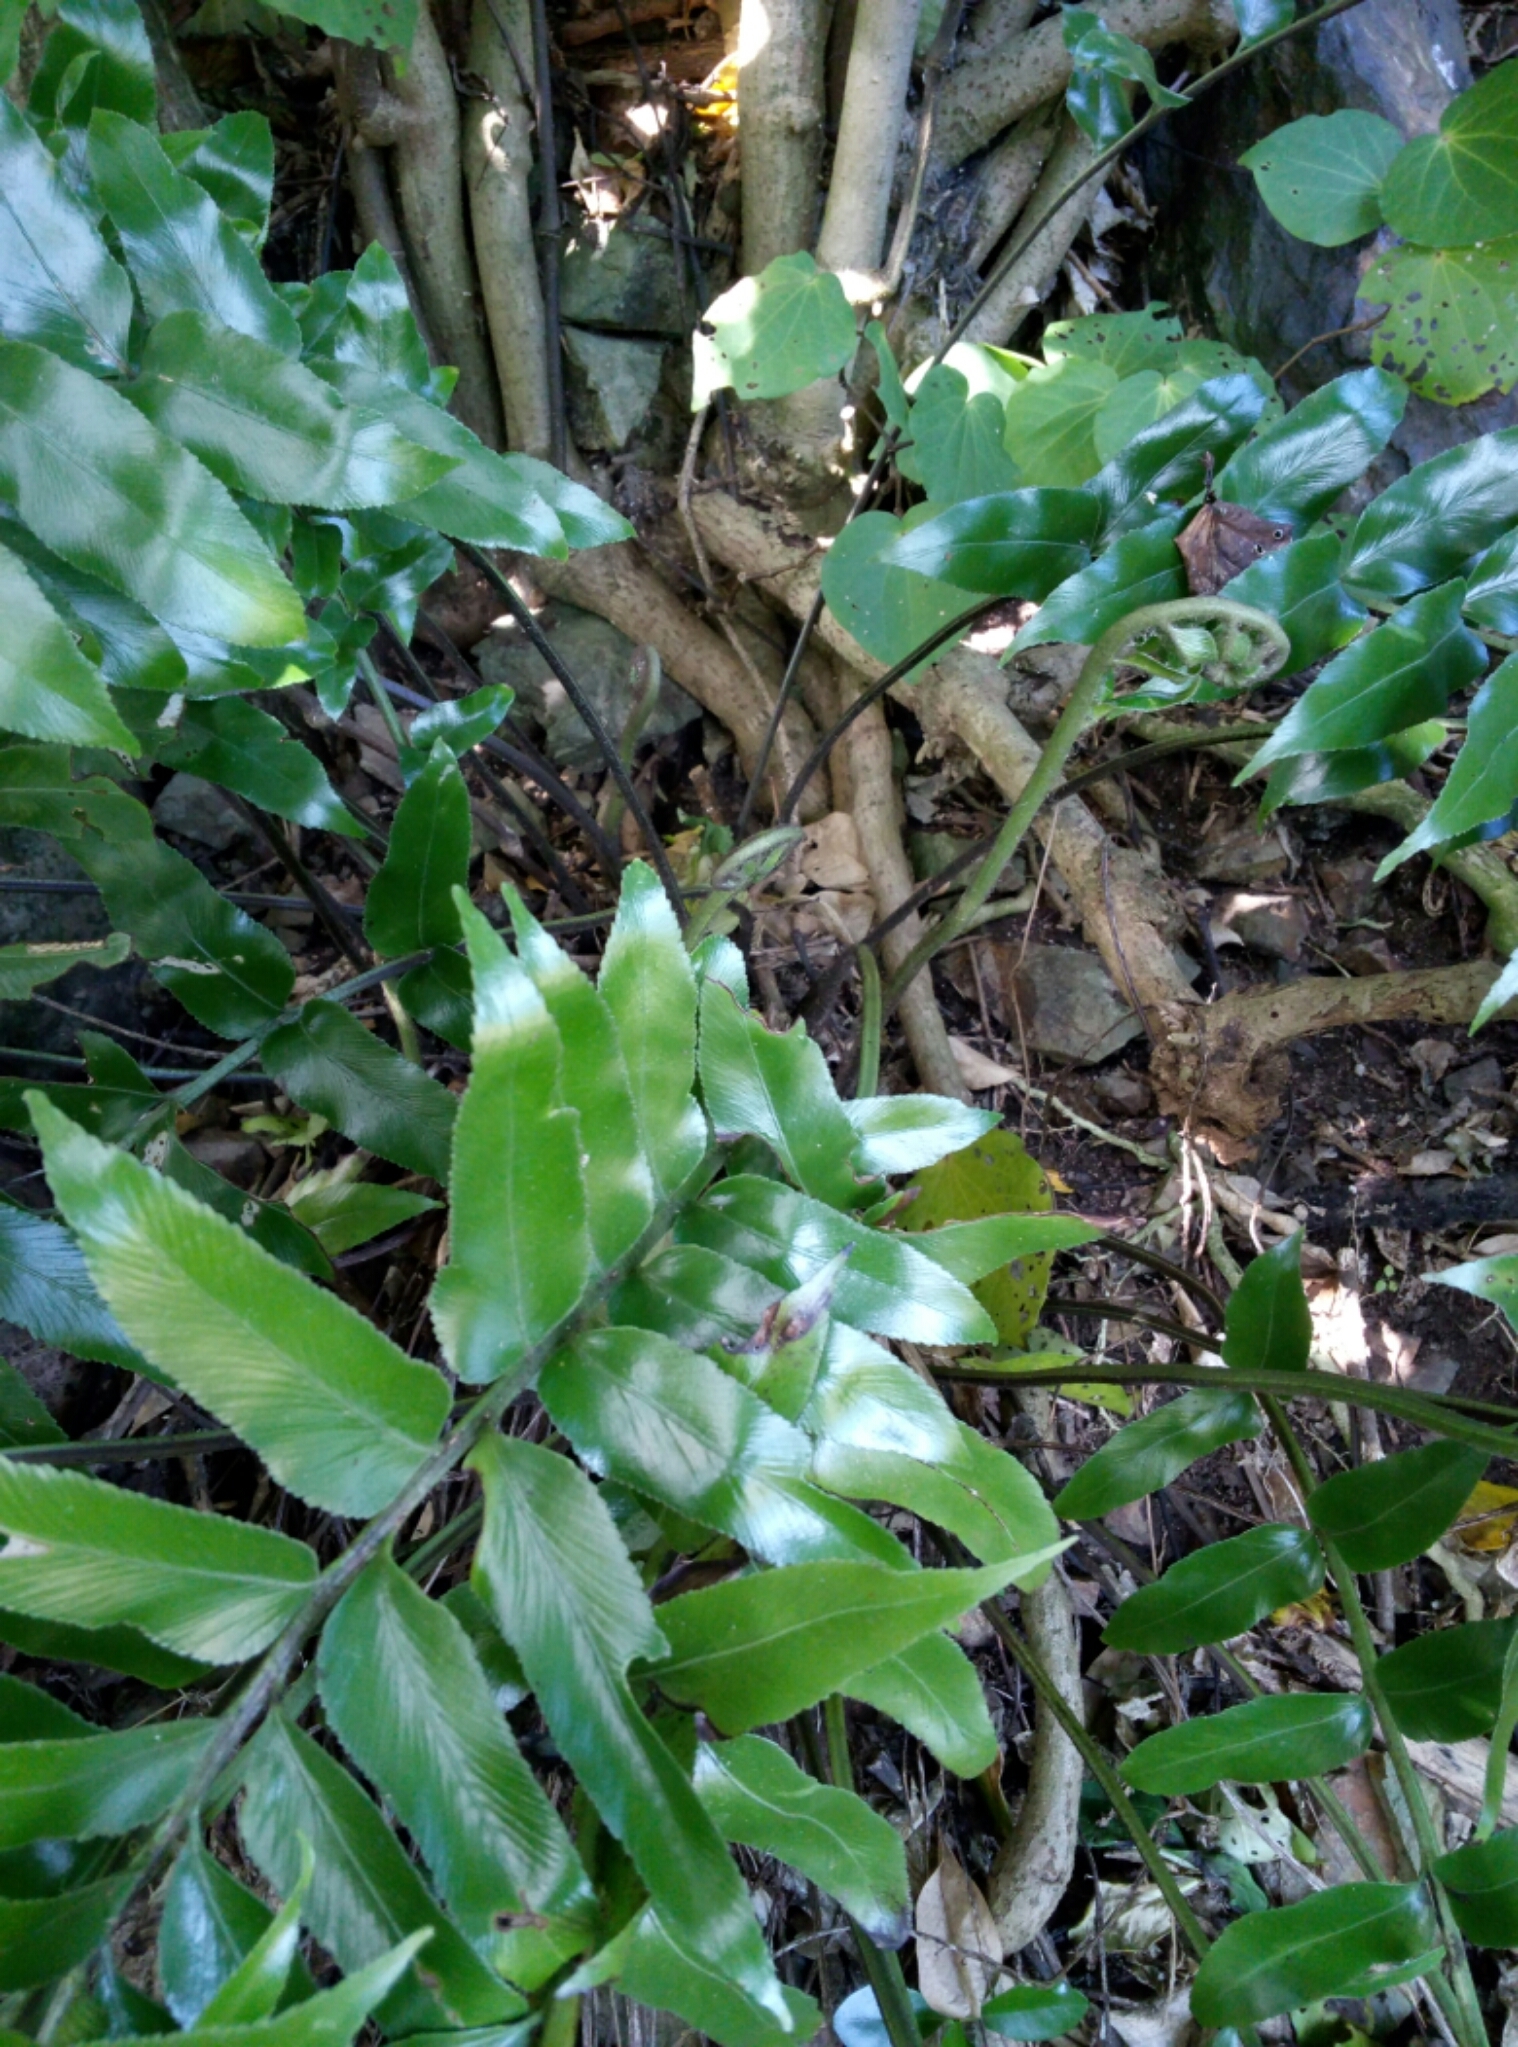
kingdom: Plantae
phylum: Tracheophyta
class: Polypodiopsida
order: Polypodiales
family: Aspleniaceae
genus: Asplenium
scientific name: Asplenium oblongifolium
